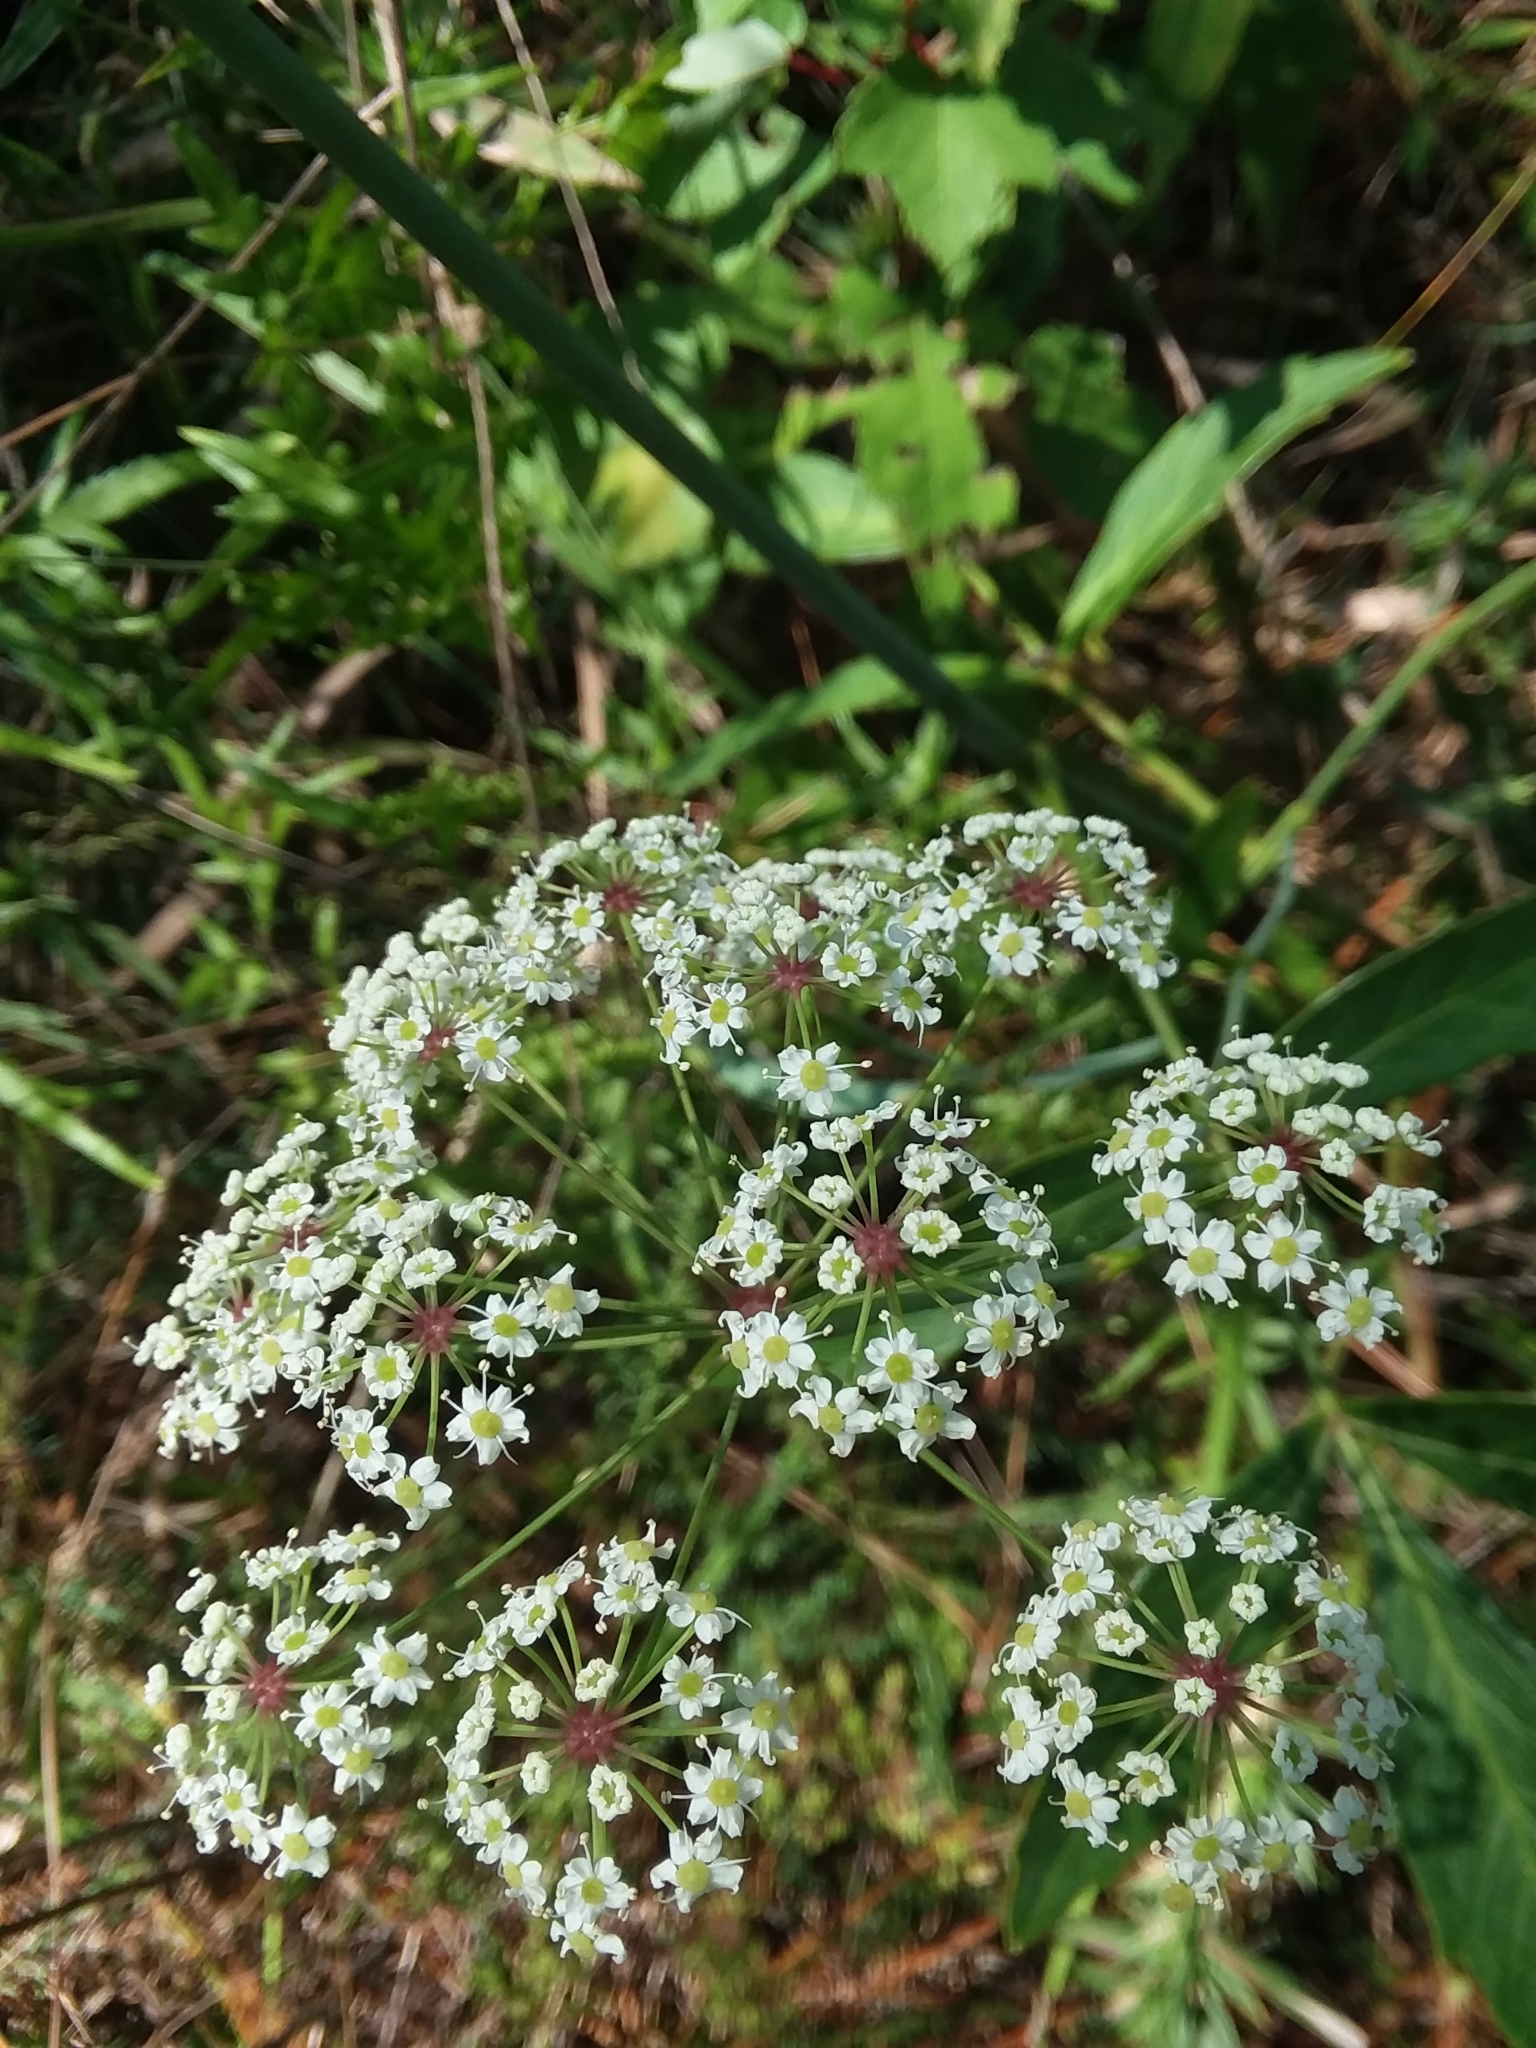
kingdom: Plantae
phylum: Tracheophyta
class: Magnoliopsida
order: Apiales
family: Apiaceae
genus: Oxypolis
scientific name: Oxypolis rigidior
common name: Cowbane
